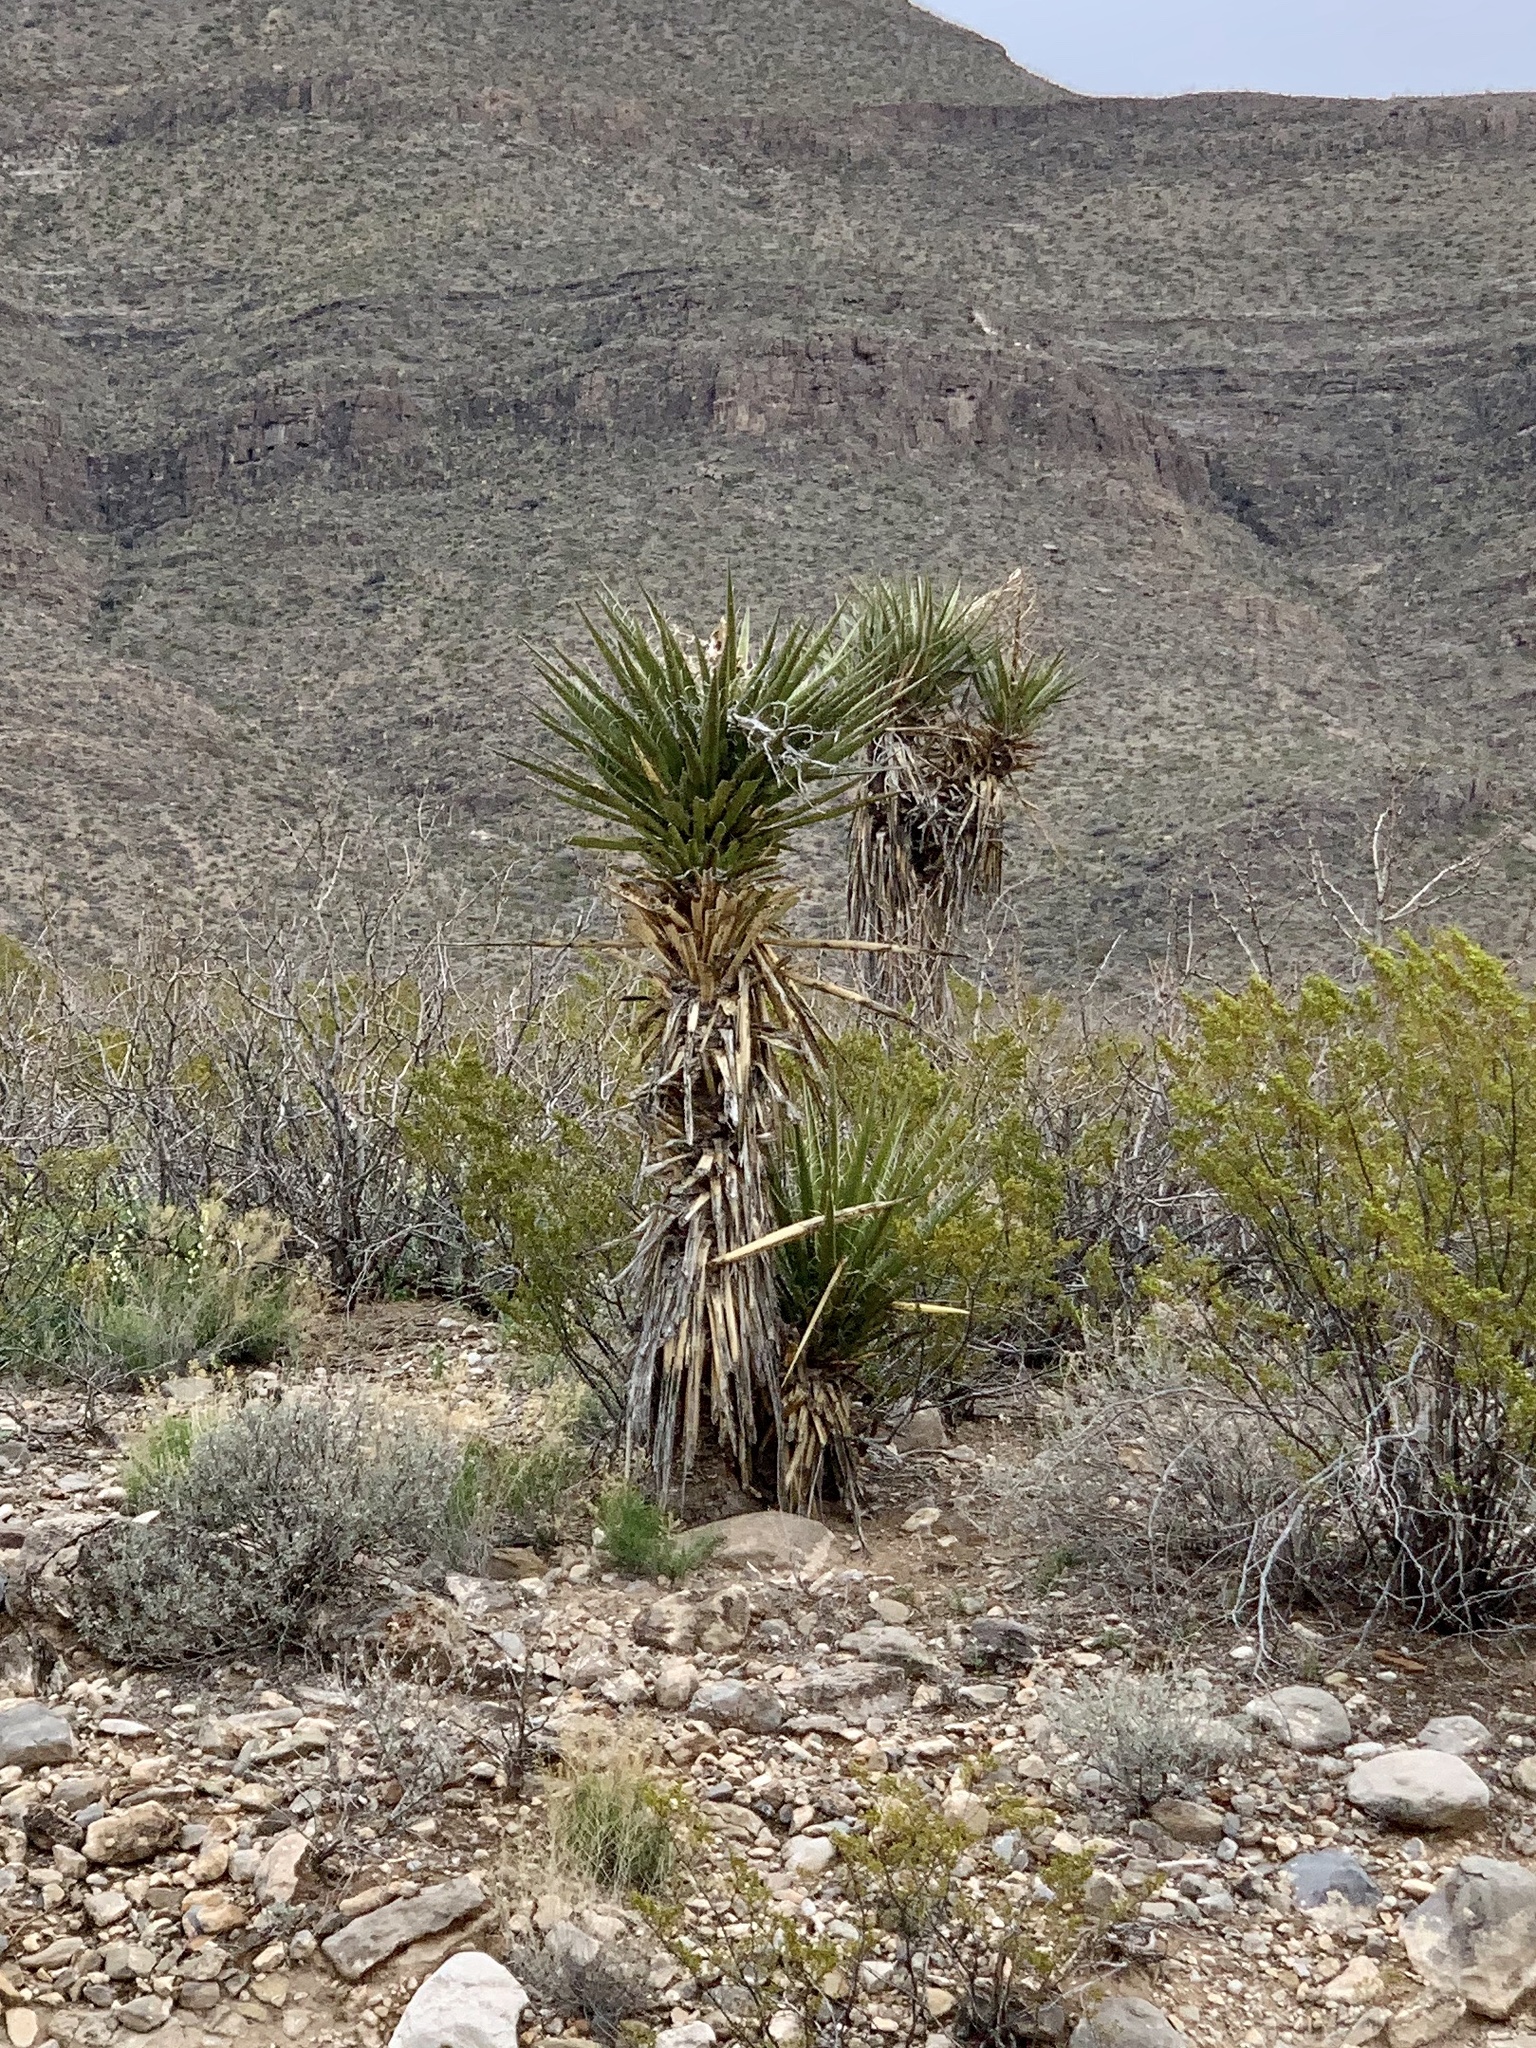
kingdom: Plantae
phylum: Tracheophyta
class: Liliopsida
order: Asparagales
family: Asparagaceae
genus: Yucca
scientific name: Yucca treculiana
